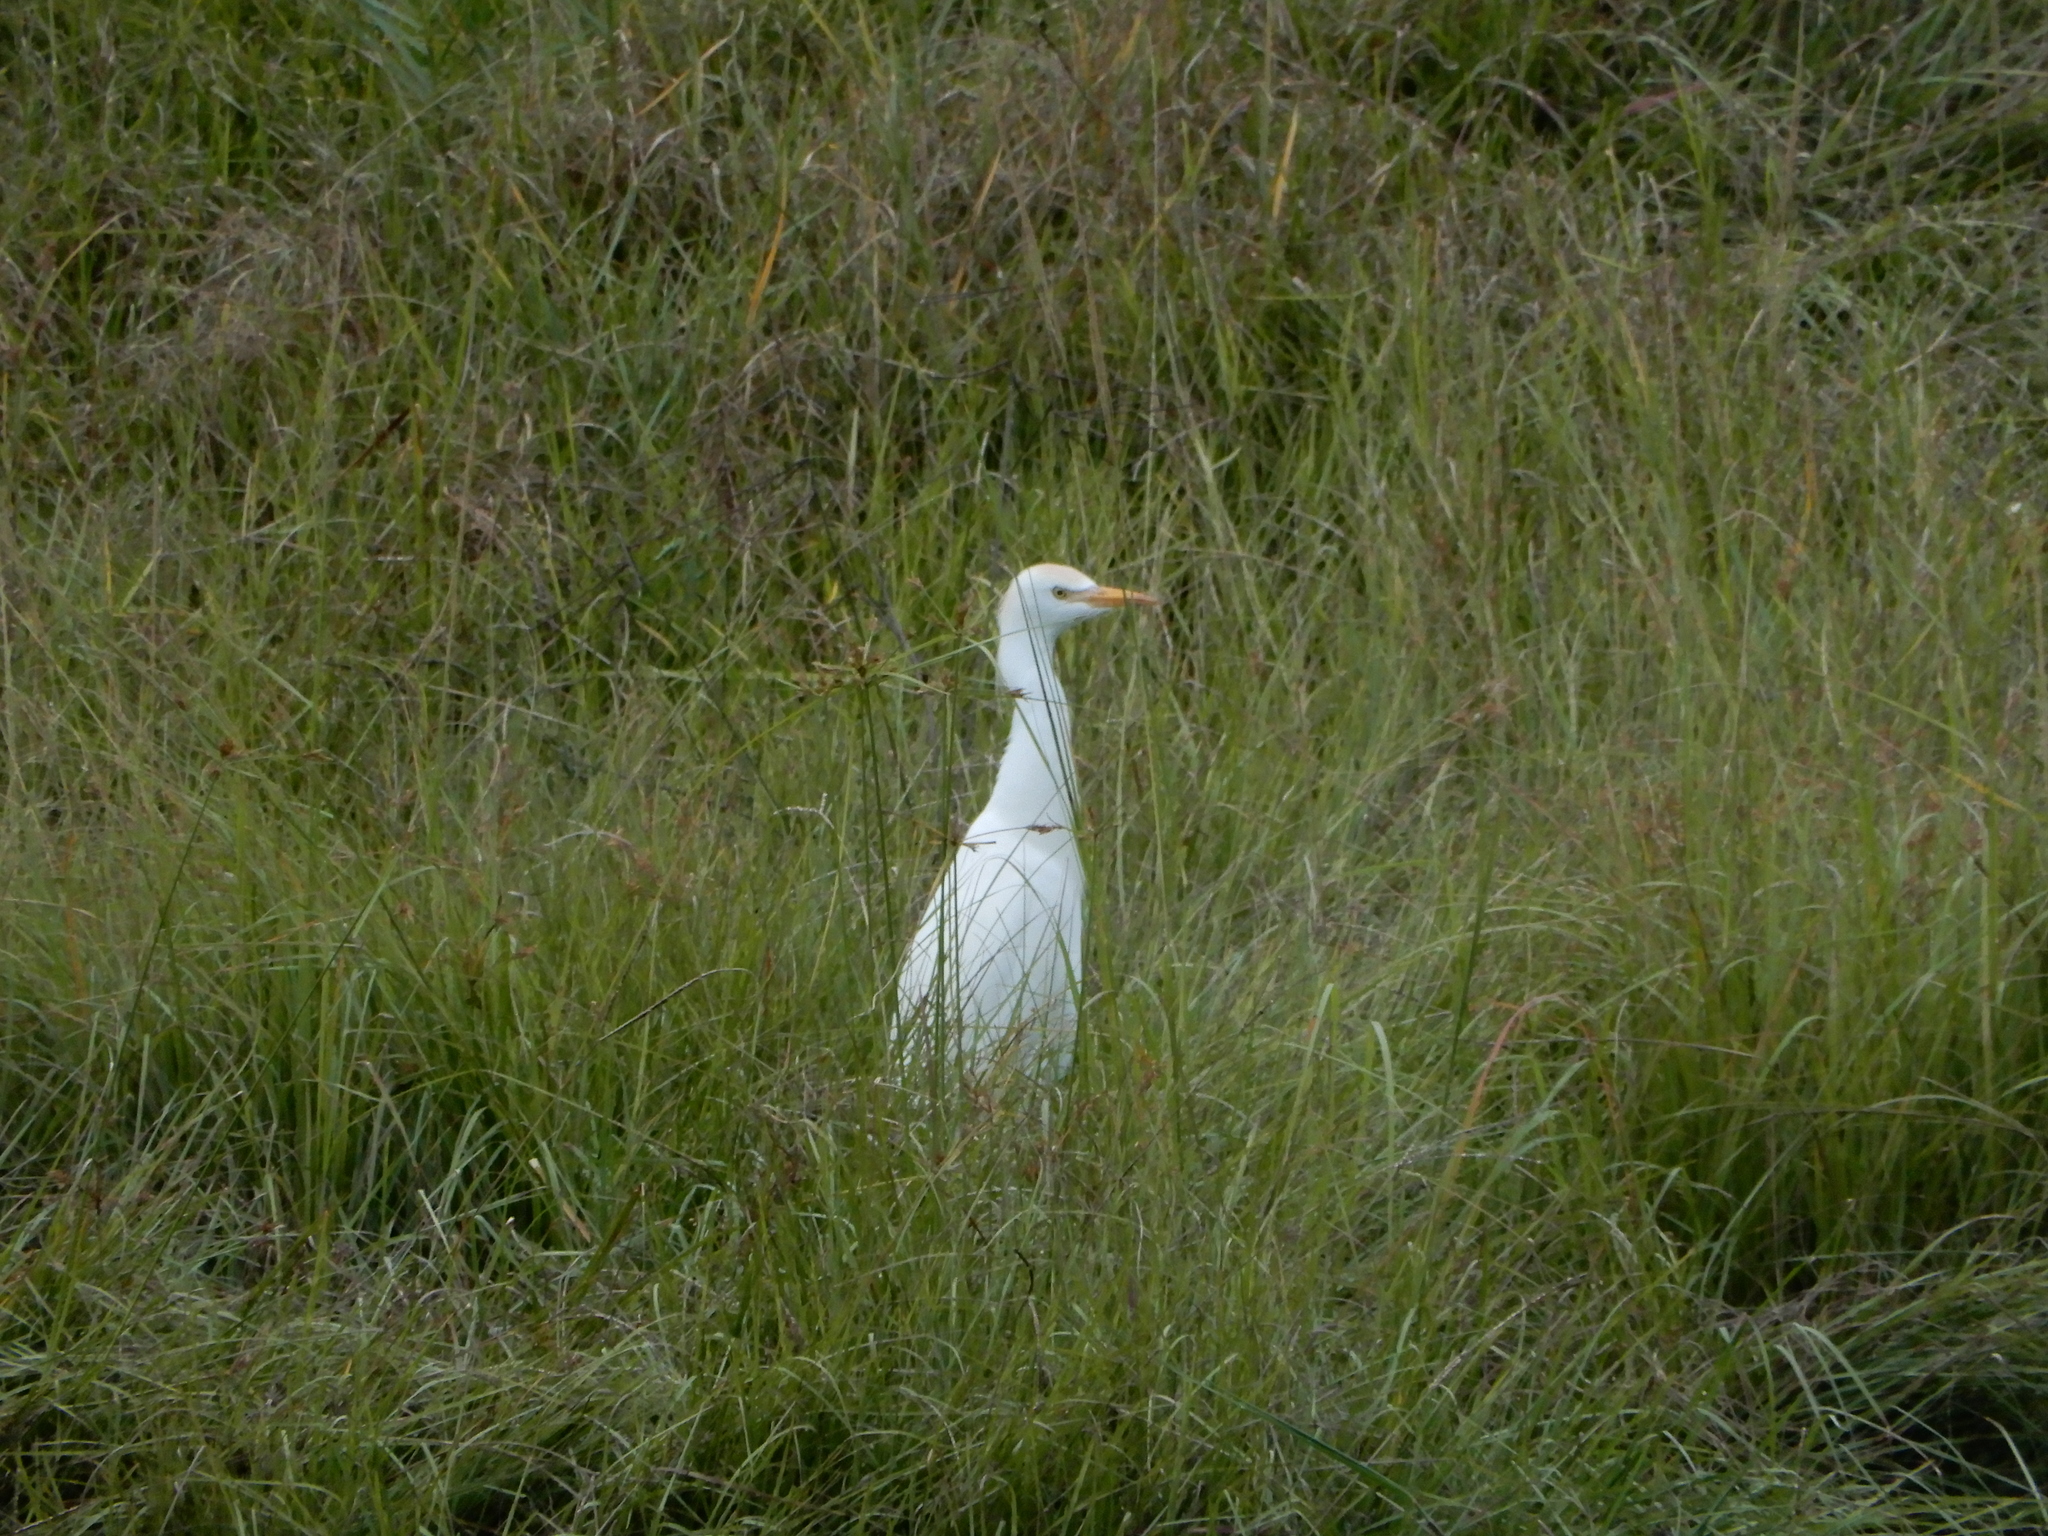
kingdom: Animalia
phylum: Chordata
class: Aves
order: Pelecaniformes
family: Ardeidae
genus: Bubulcus
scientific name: Bubulcus ibis
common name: Cattle egret
